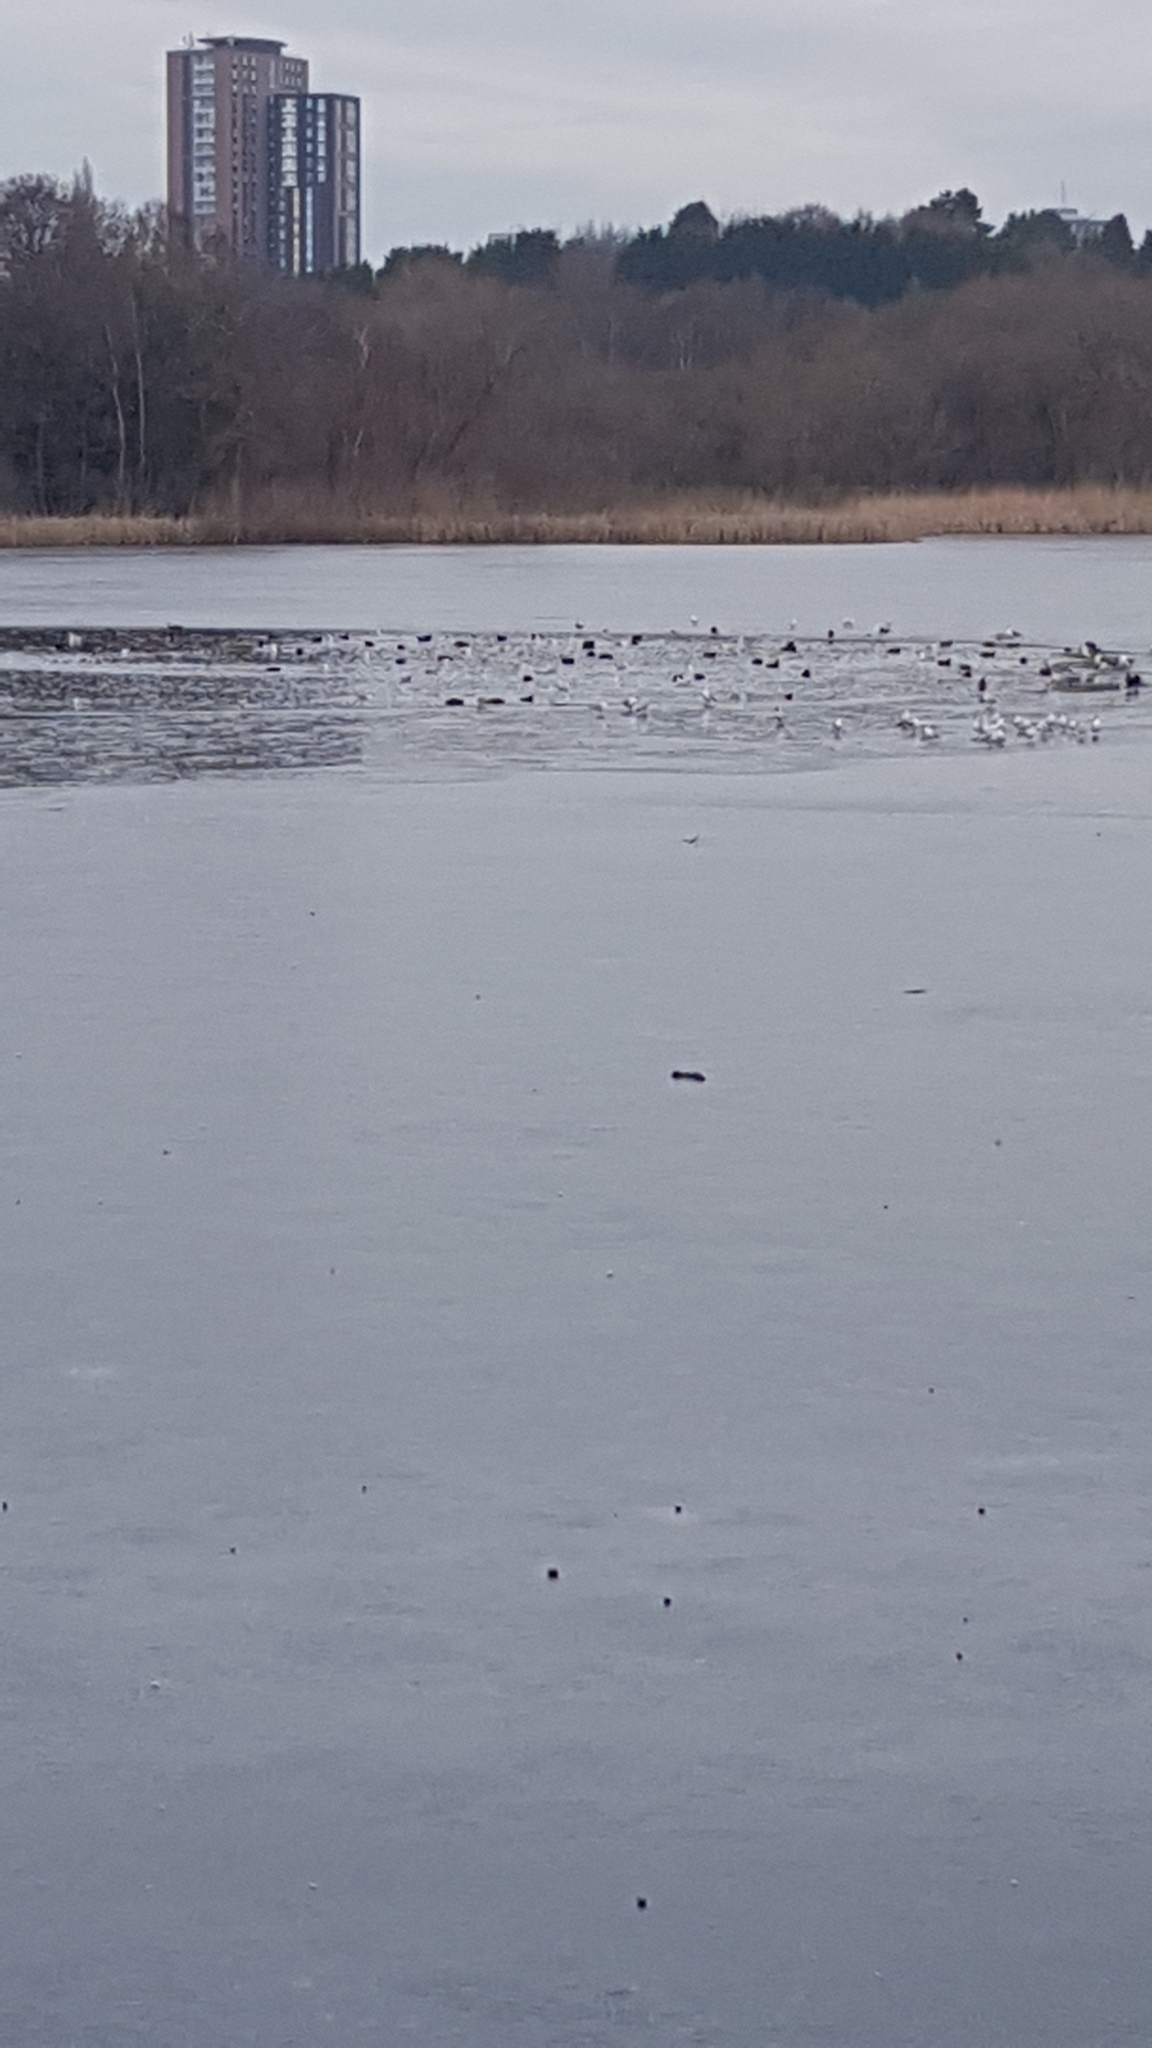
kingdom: Animalia
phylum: Chordata
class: Aves
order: Gruiformes
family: Rallidae
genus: Fulica
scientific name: Fulica atra
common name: Eurasian coot
